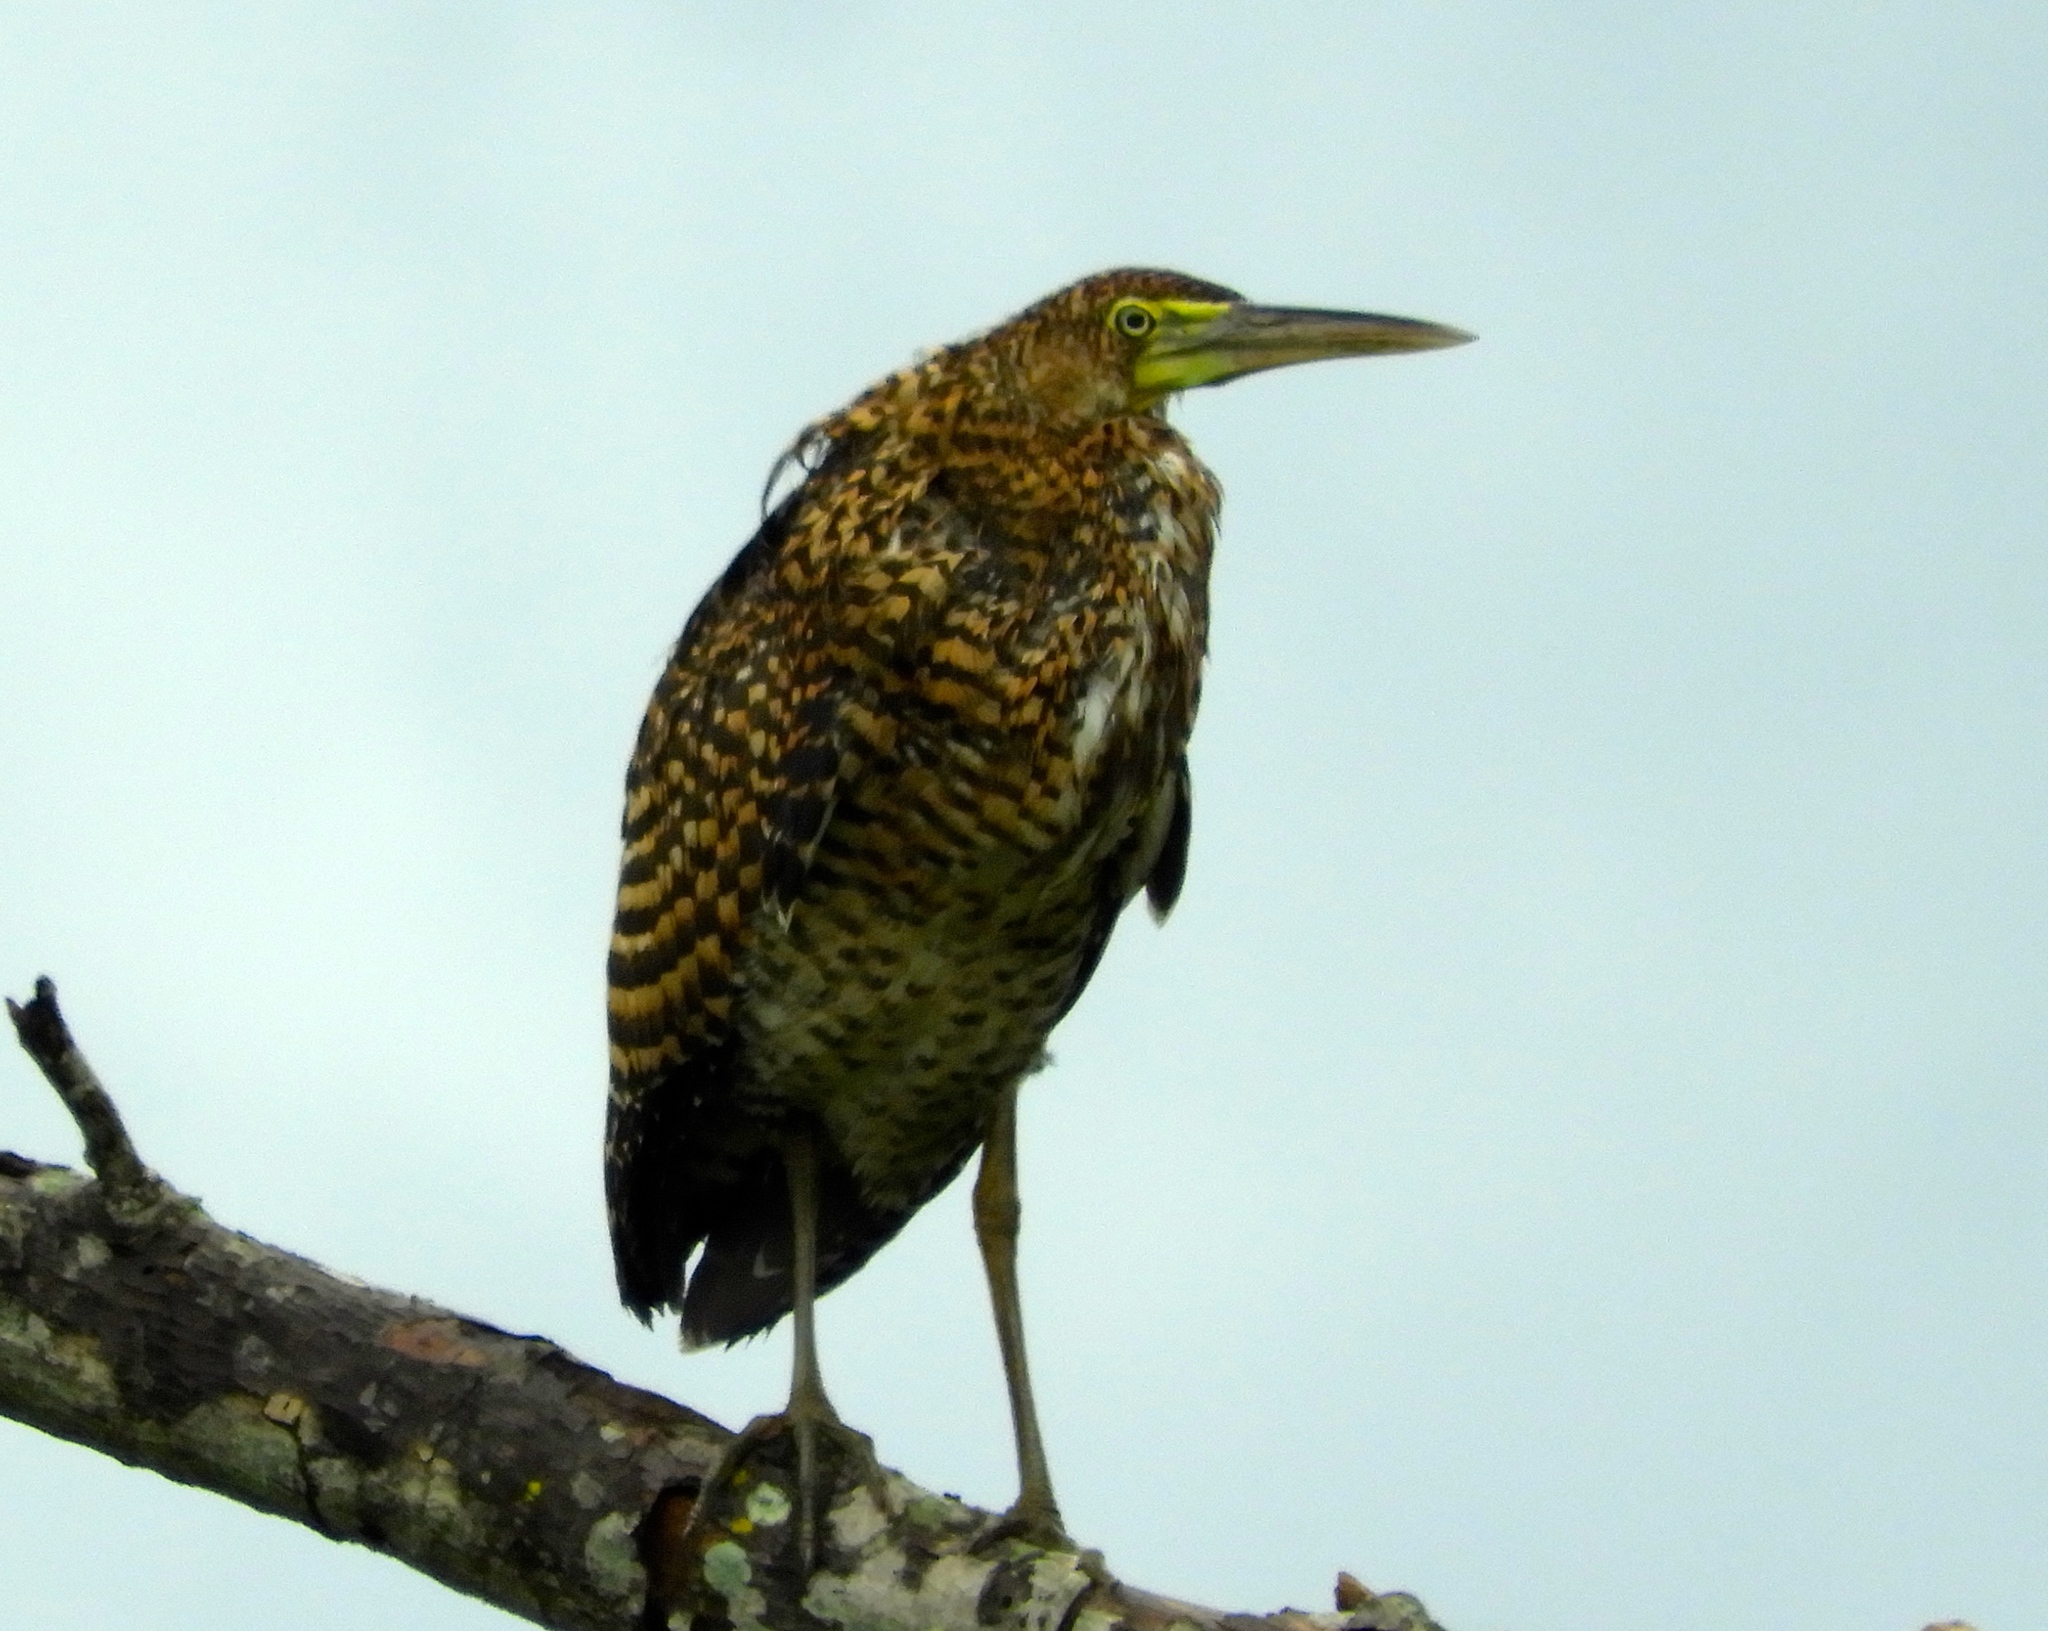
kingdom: Animalia
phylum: Chordata
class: Aves
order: Pelecaniformes
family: Ardeidae
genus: Tigrisoma
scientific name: Tigrisoma mexicanum
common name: Bare-throated tiger-heron
